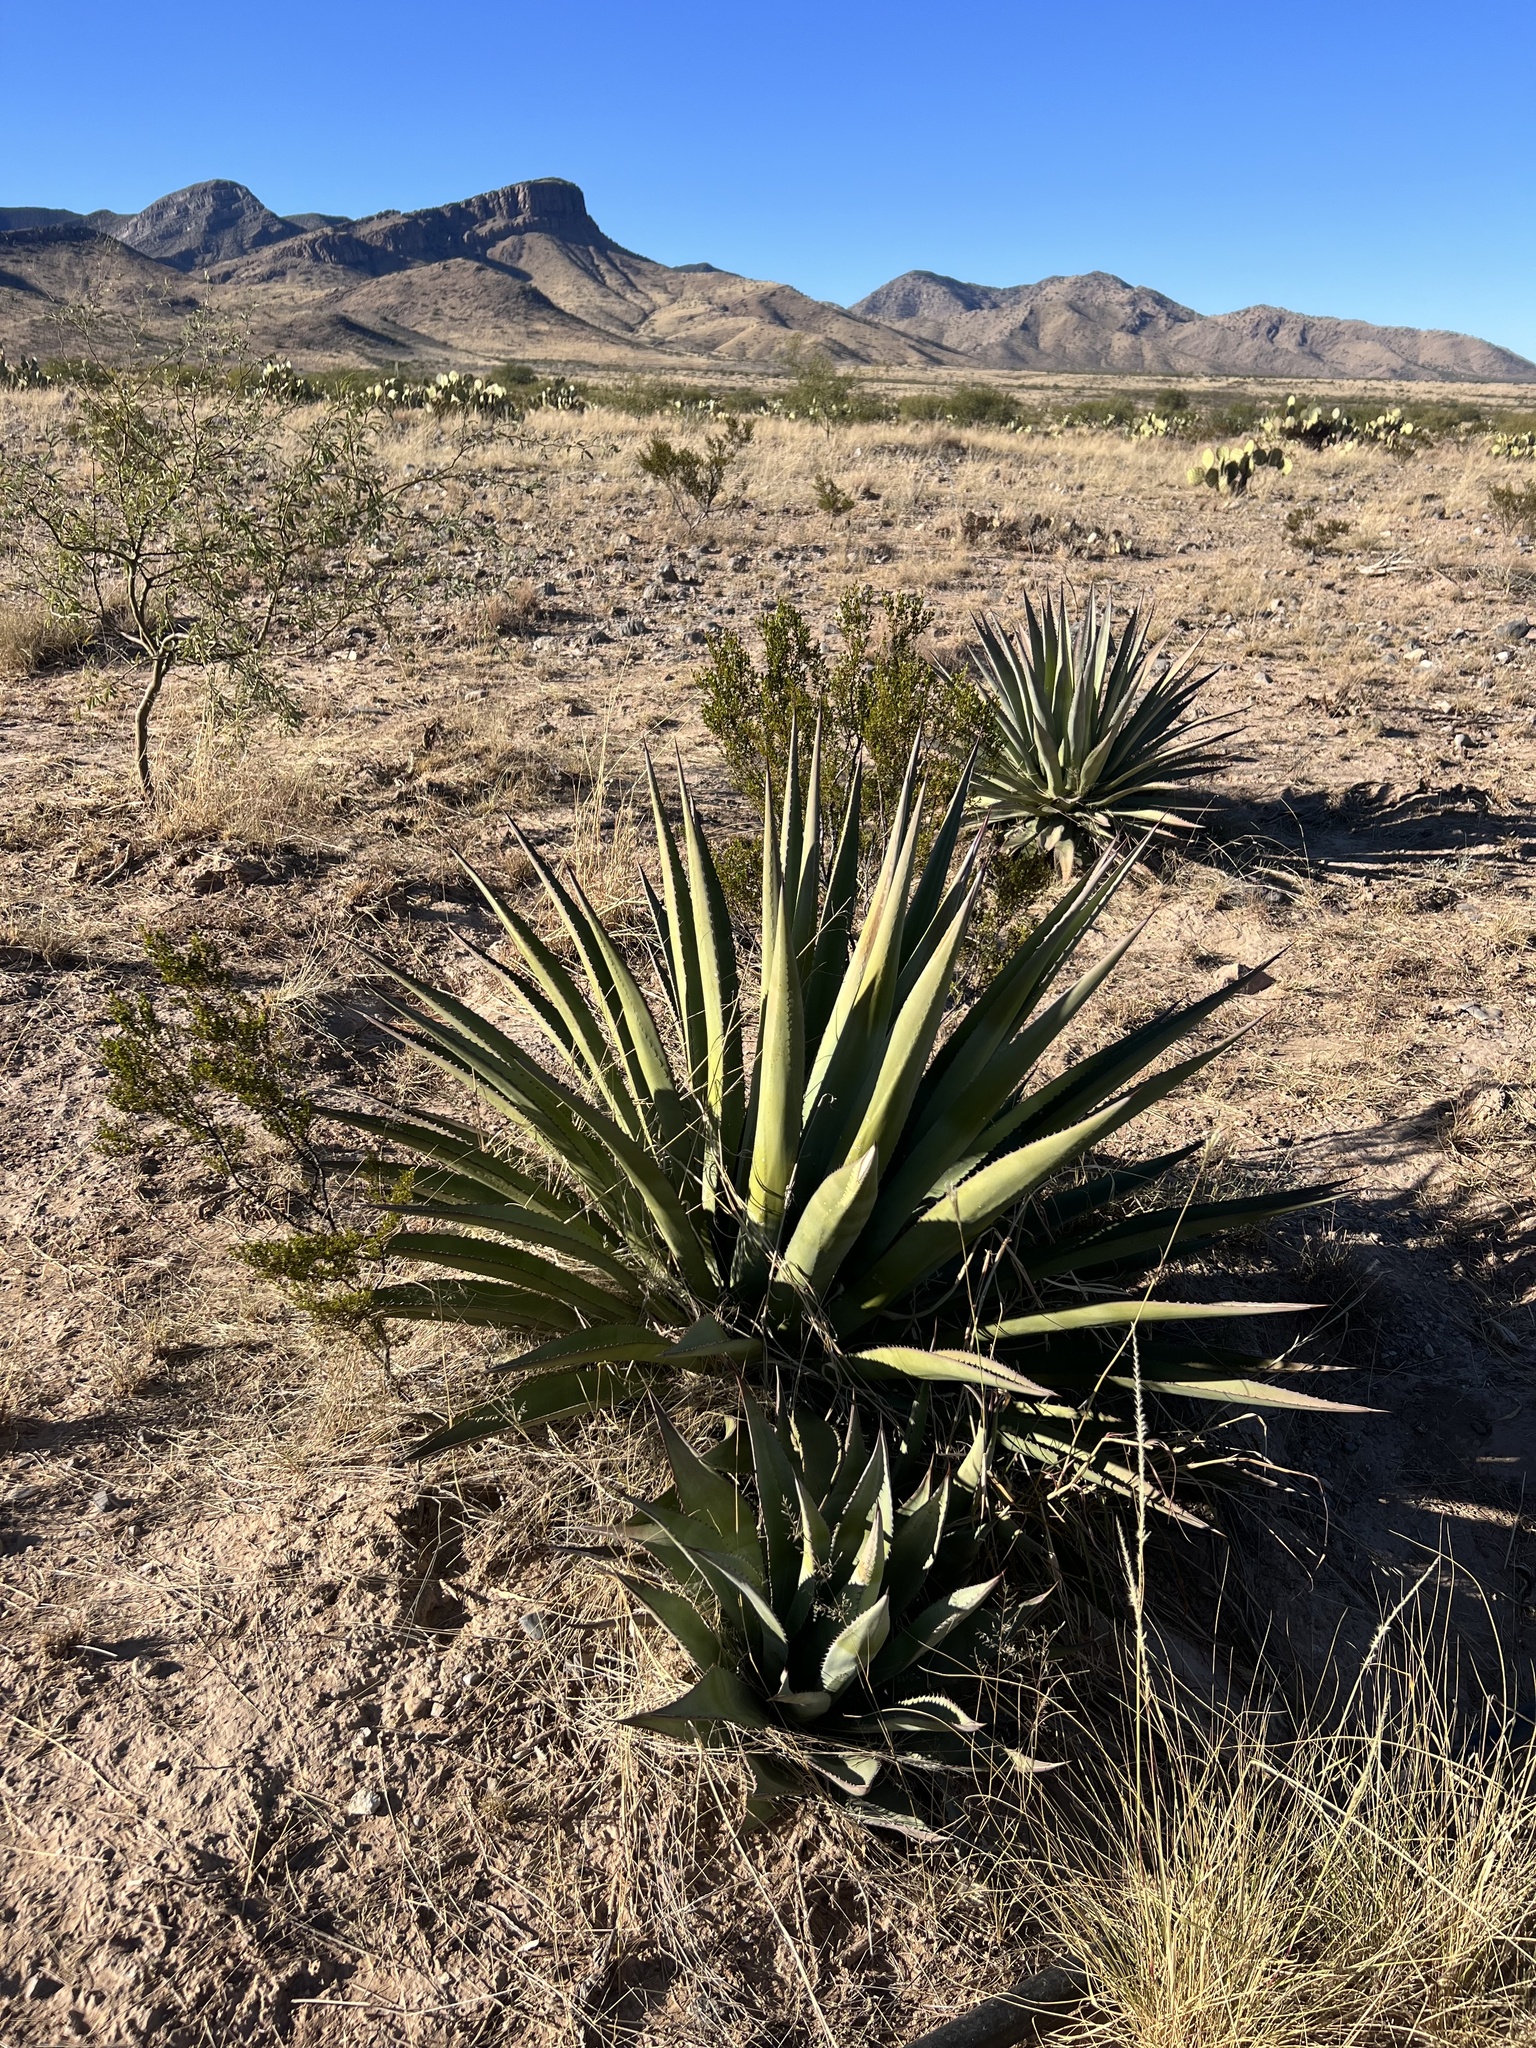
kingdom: Plantae
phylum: Tracheophyta
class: Liliopsida
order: Asparagales
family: Asparagaceae
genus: Agave
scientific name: Agave palmeri
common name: Palmer agave
